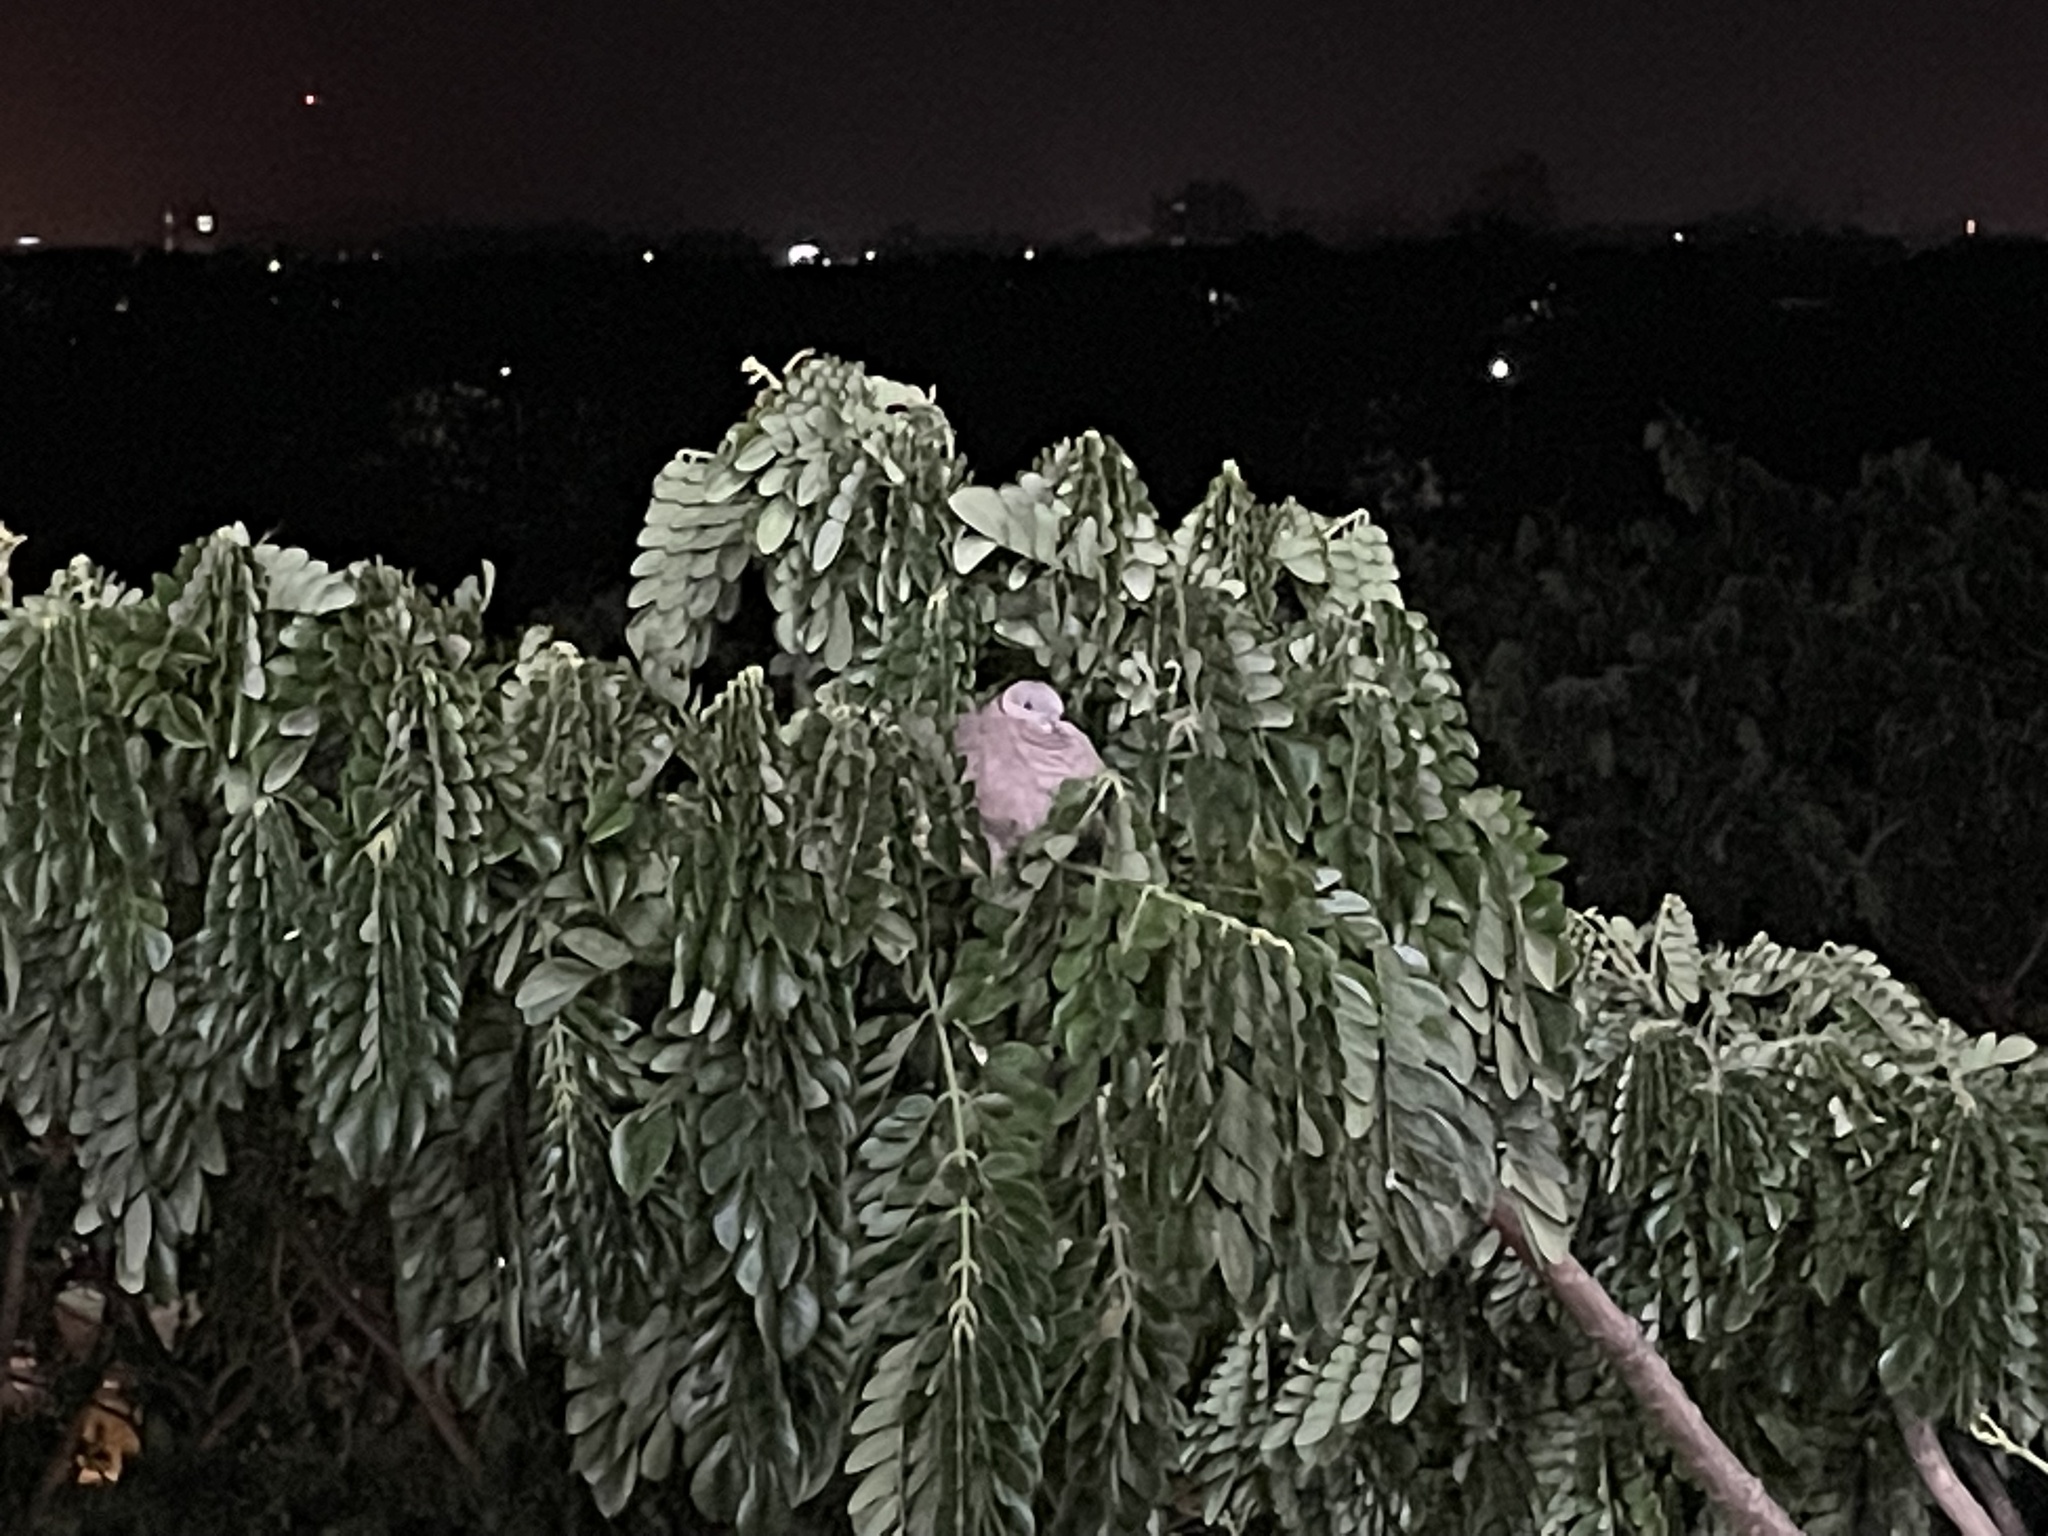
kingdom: Animalia
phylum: Chordata
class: Aves
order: Columbiformes
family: Columbidae
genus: Streptopelia
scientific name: Streptopelia tranquebarica
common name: Red turtle dove
